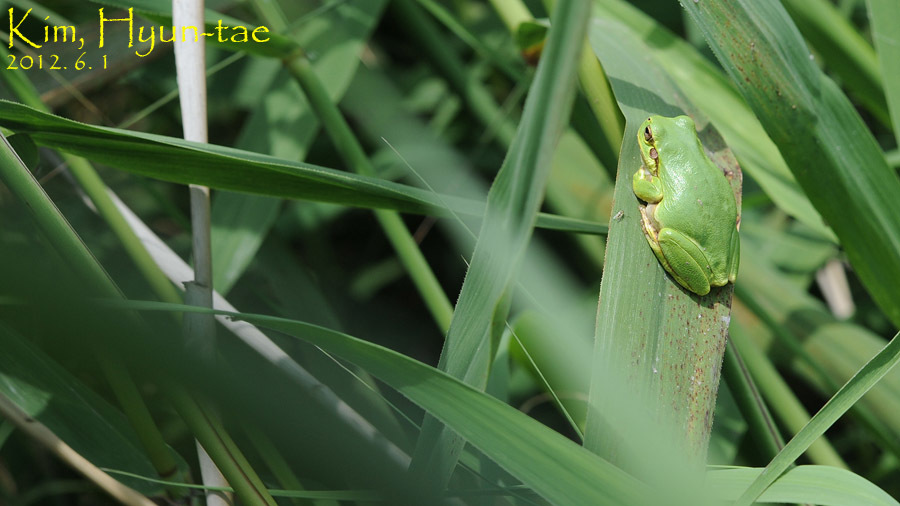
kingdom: Animalia
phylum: Chordata
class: Amphibia
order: Anura
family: Hylidae
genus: Dryophytes
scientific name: Dryophytes japonicus
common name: Japanese treefrog
